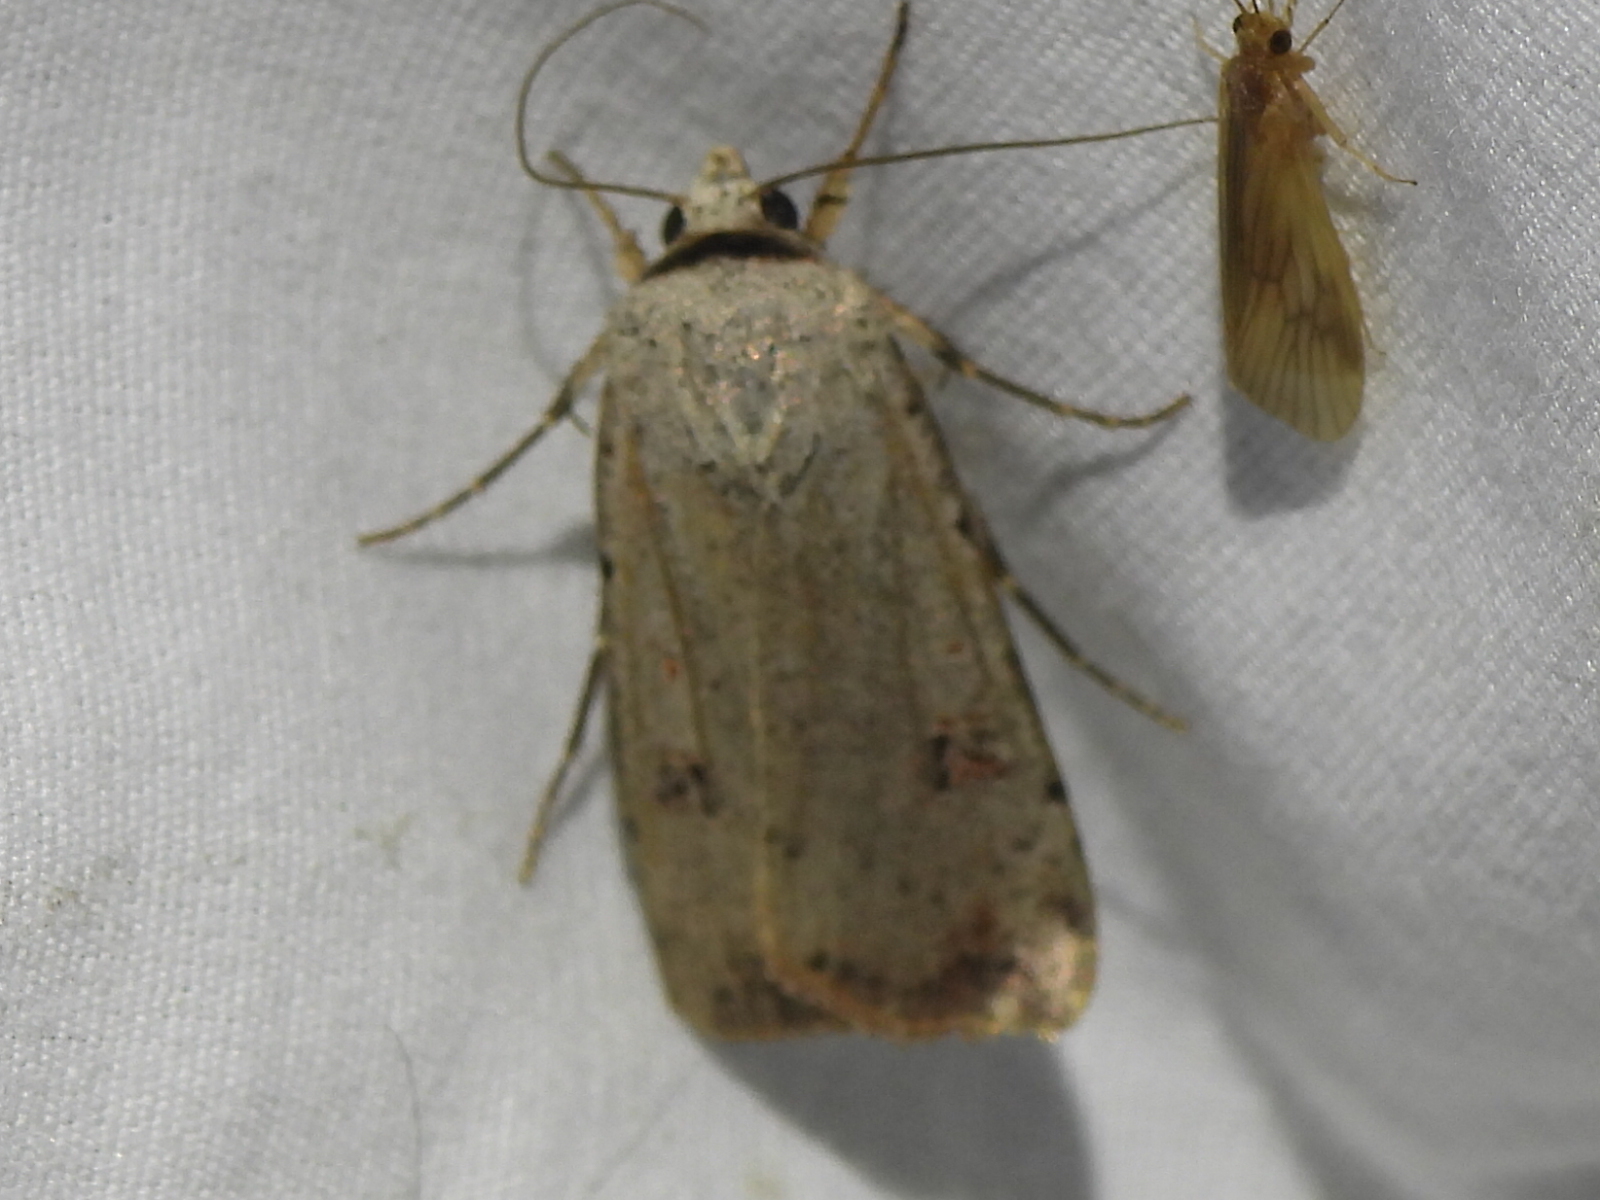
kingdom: Animalia
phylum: Arthropoda
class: Insecta
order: Lepidoptera
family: Noctuidae
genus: Anicla
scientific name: Anicla infecta
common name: Green cutworm
